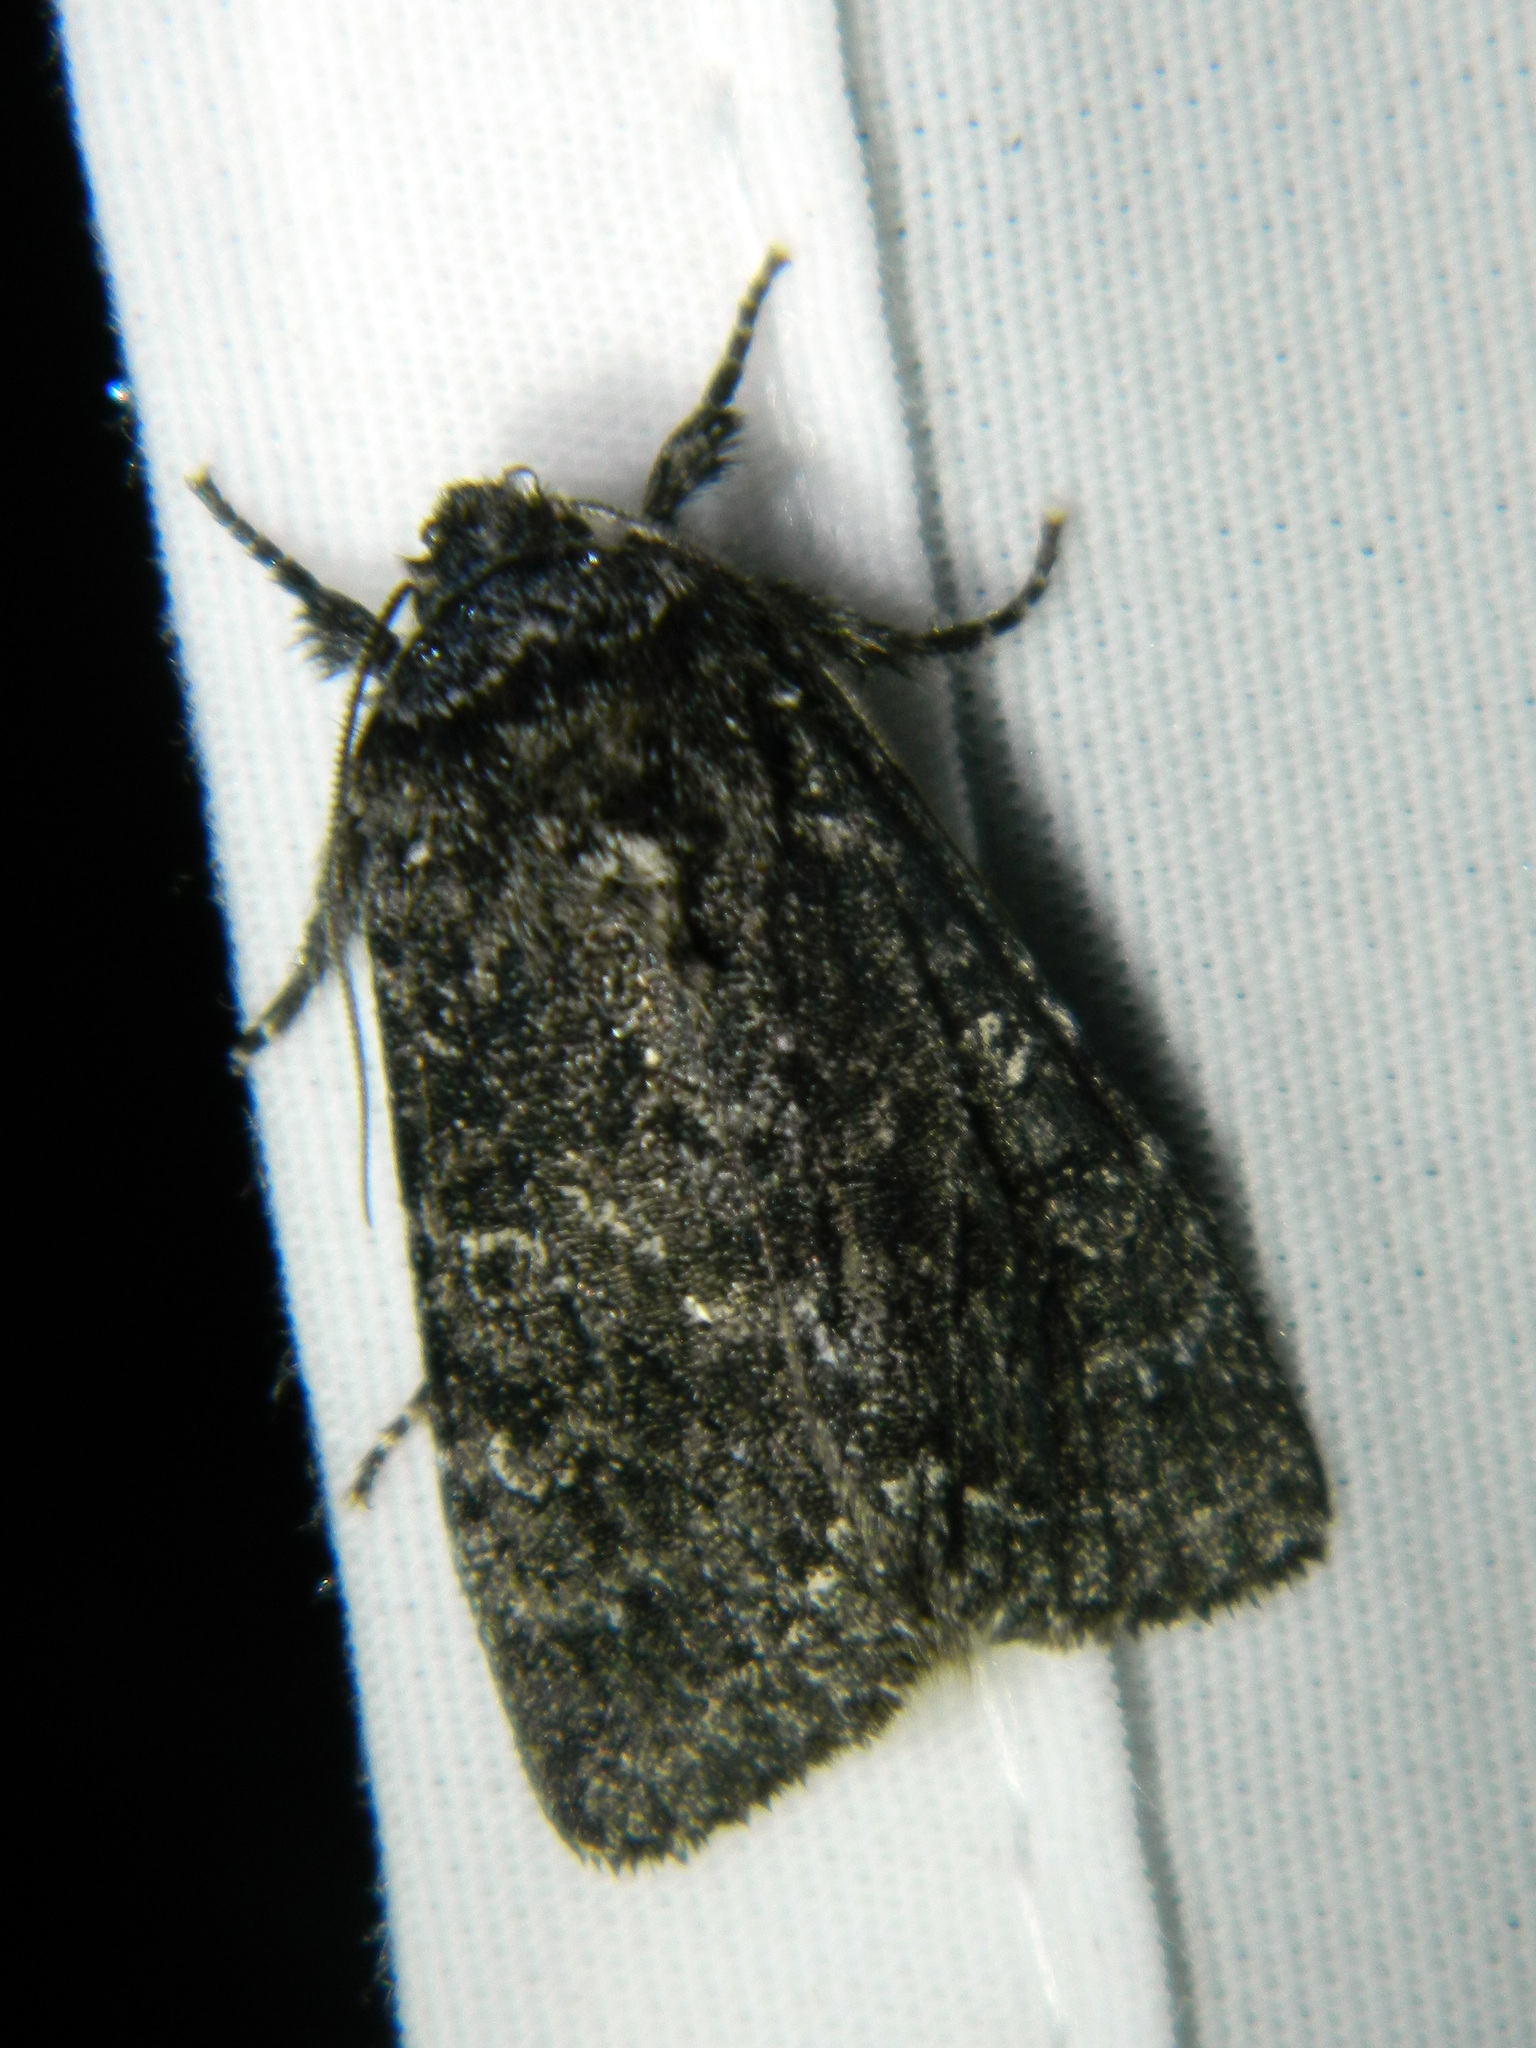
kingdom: Animalia
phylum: Arthropoda
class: Insecta
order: Lepidoptera
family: Noctuidae
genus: Egira
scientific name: Egira dolosa
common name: Lined black aspen cat.
